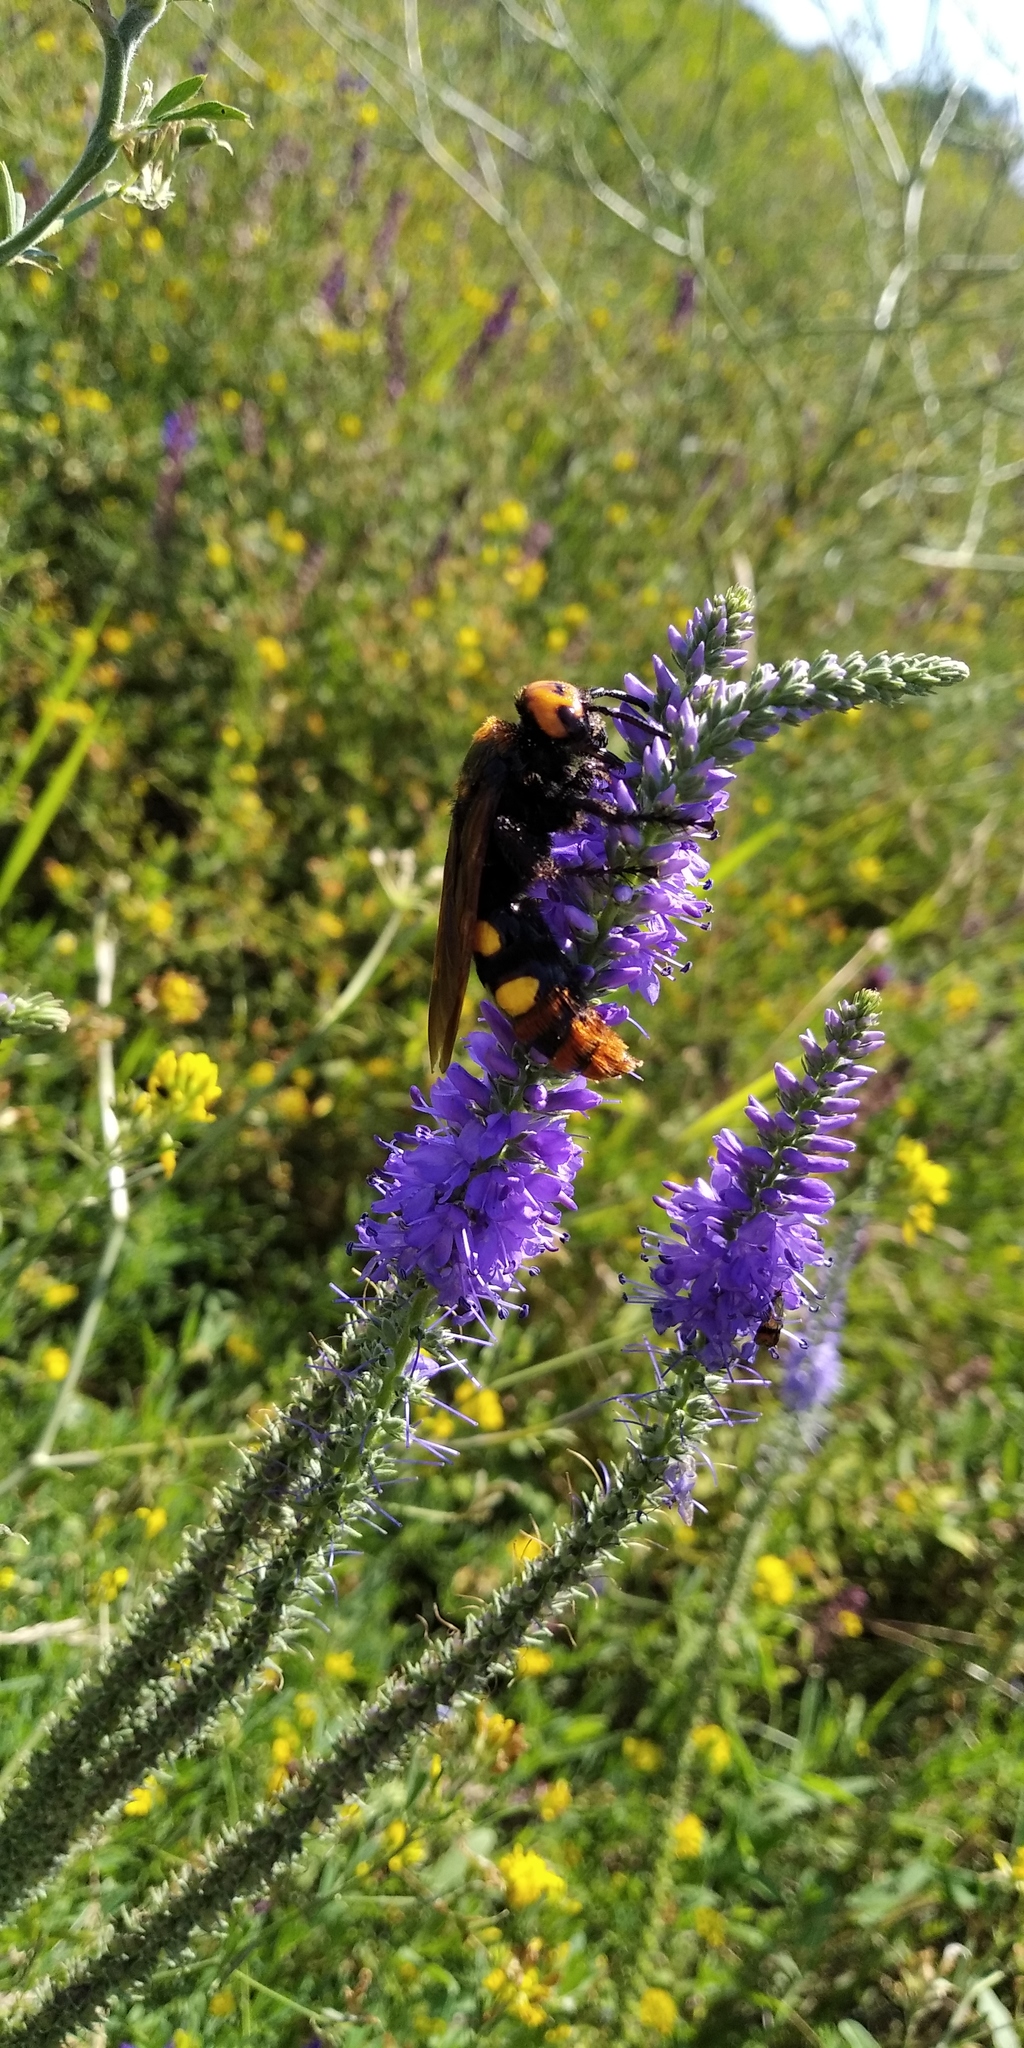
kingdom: Animalia
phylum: Arthropoda
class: Insecta
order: Hymenoptera
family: Scoliidae
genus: Megascolia
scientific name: Megascolia maculata
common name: Mammoth wasp
